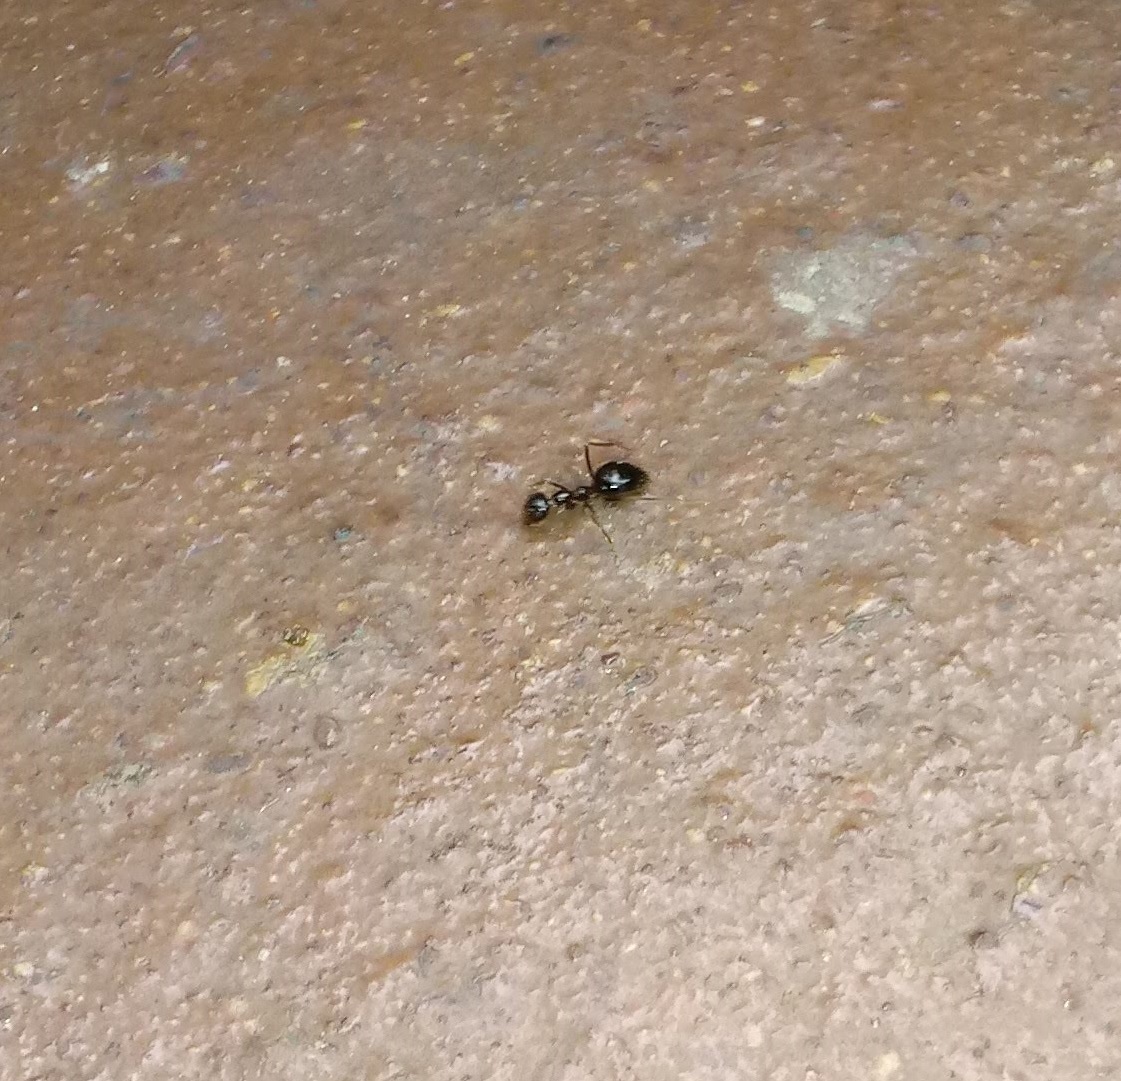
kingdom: Animalia
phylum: Arthropoda
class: Insecta
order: Hymenoptera
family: Formicidae
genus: Prenolepis
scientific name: Prenolepis imparis
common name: Small honey ant
